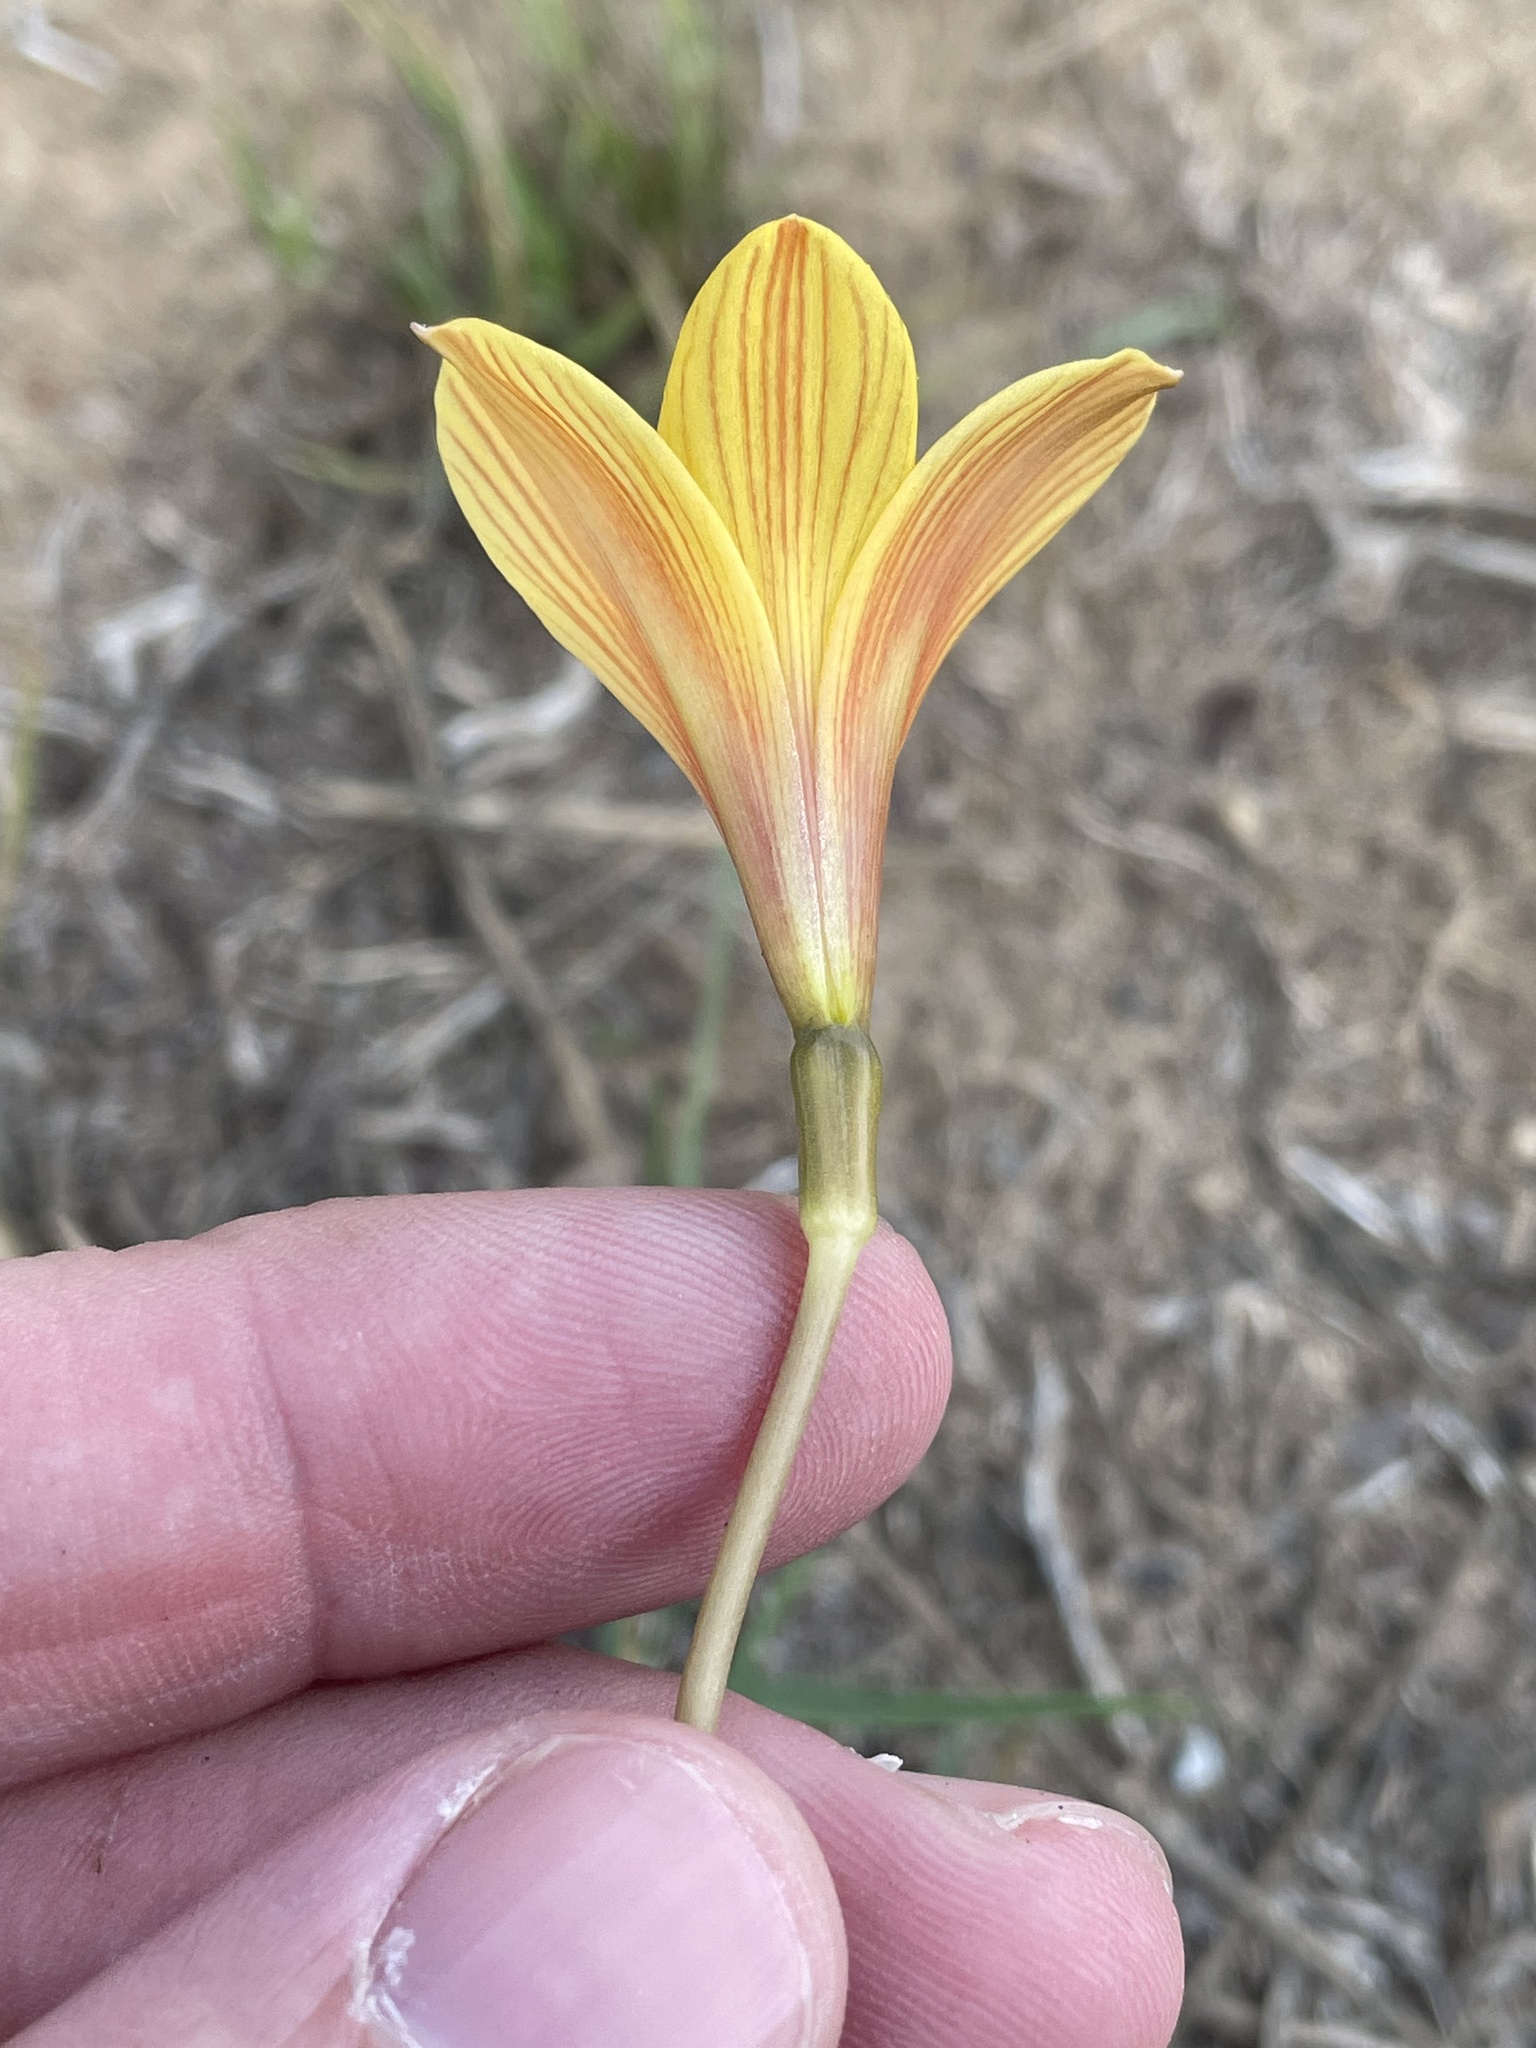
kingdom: Plantae
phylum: Tracheophyta
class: Liliopsida
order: Asparagales
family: Amaryllidaceae
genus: Zephyranthes
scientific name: Zephyranthes tubispatha
